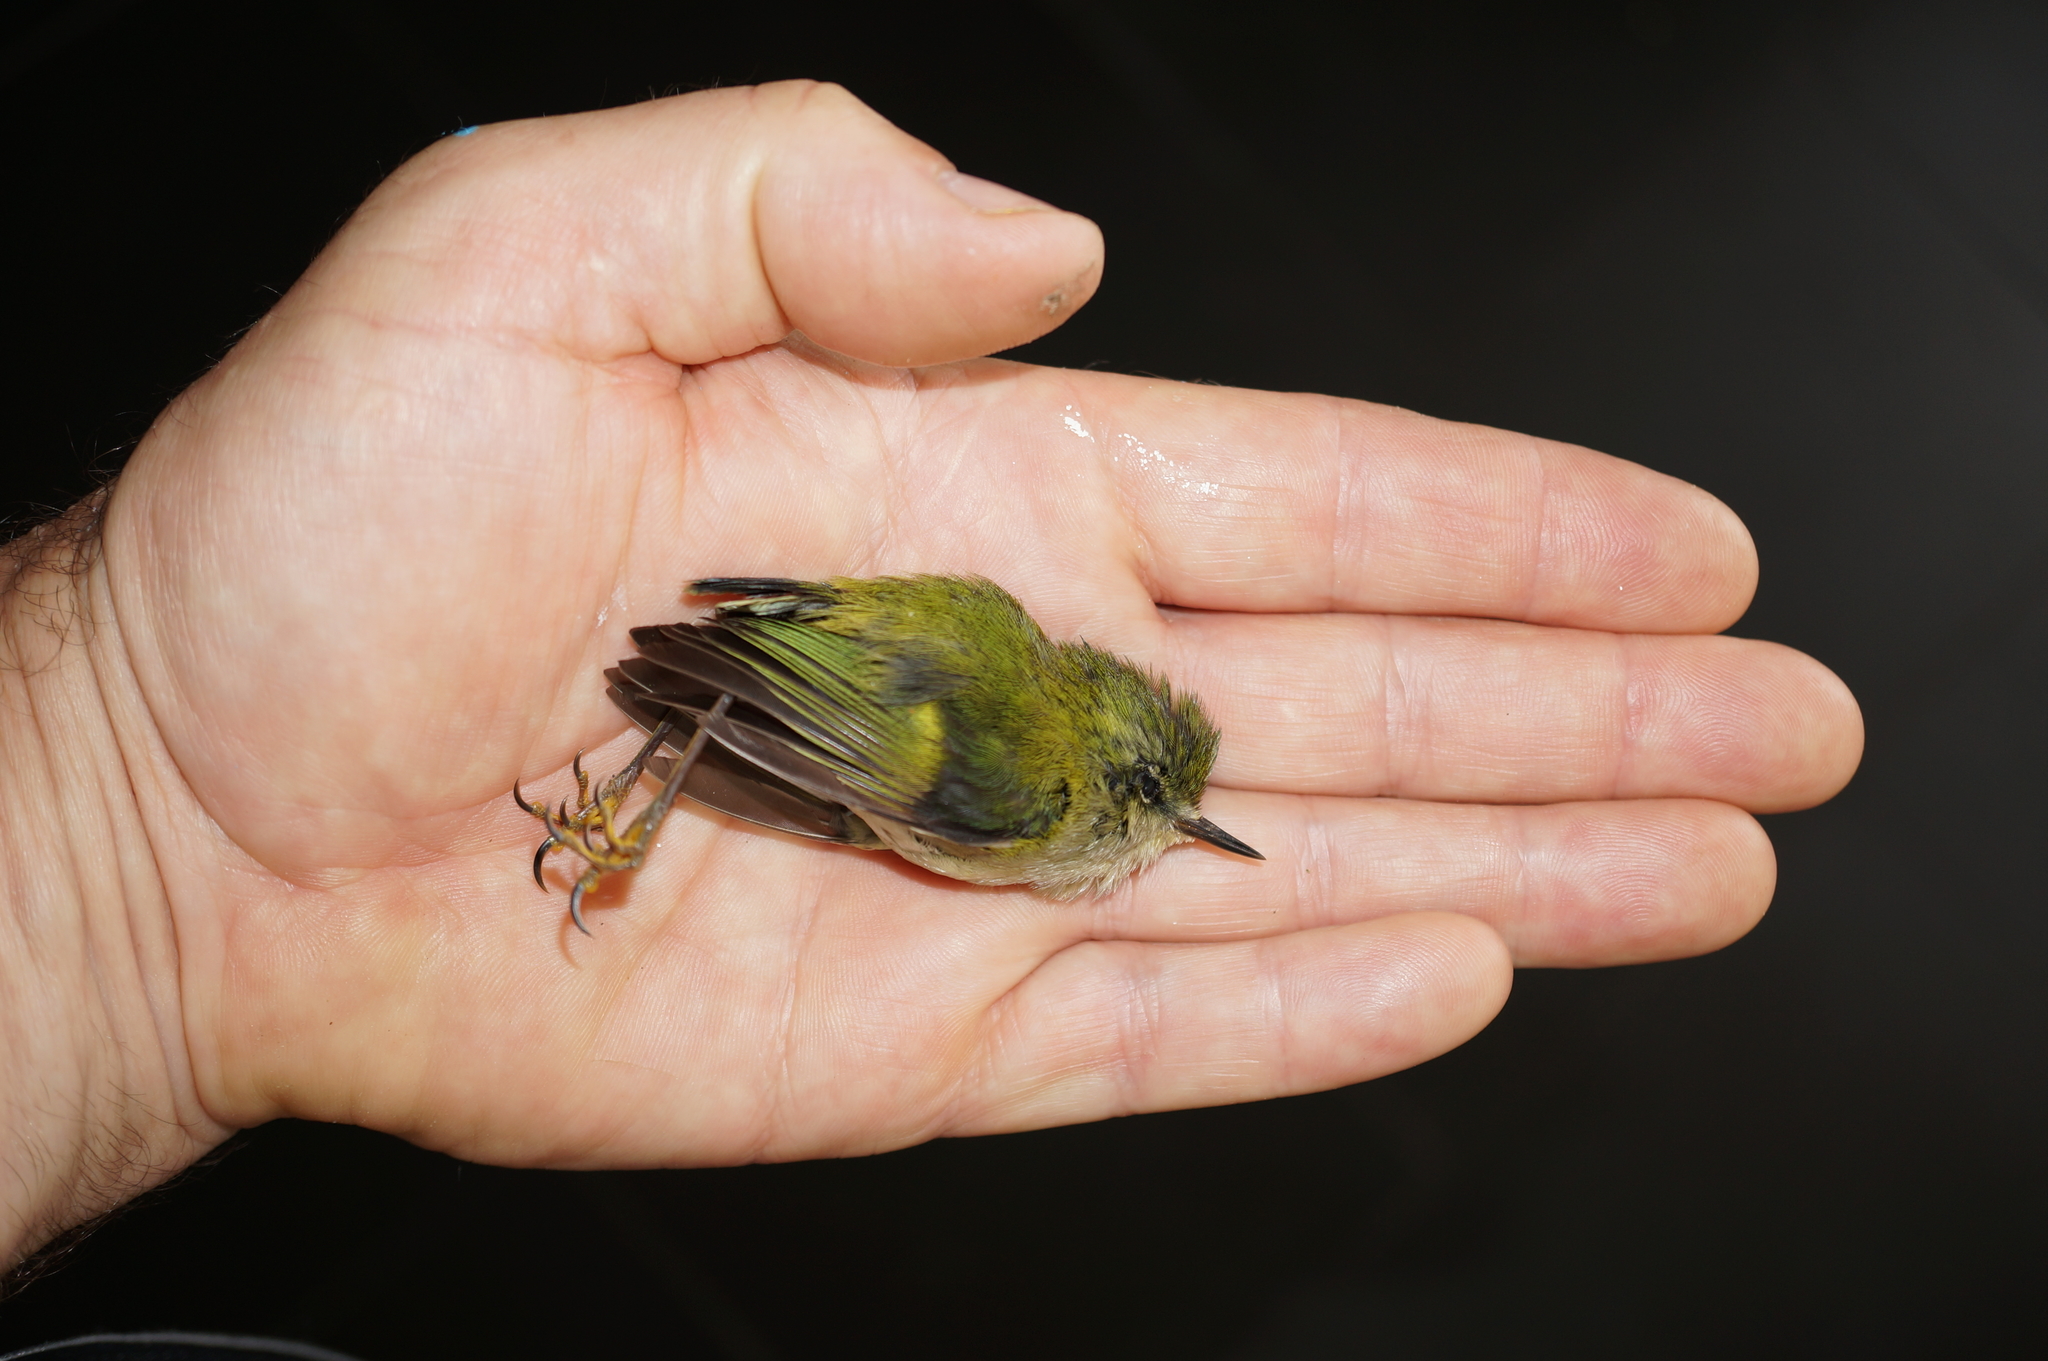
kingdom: Animalia
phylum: Chordata
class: Aves
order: Passeriformes
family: Acanthisittidae
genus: Acanthisitta
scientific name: Acanthisitta chloris
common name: Rifleman
